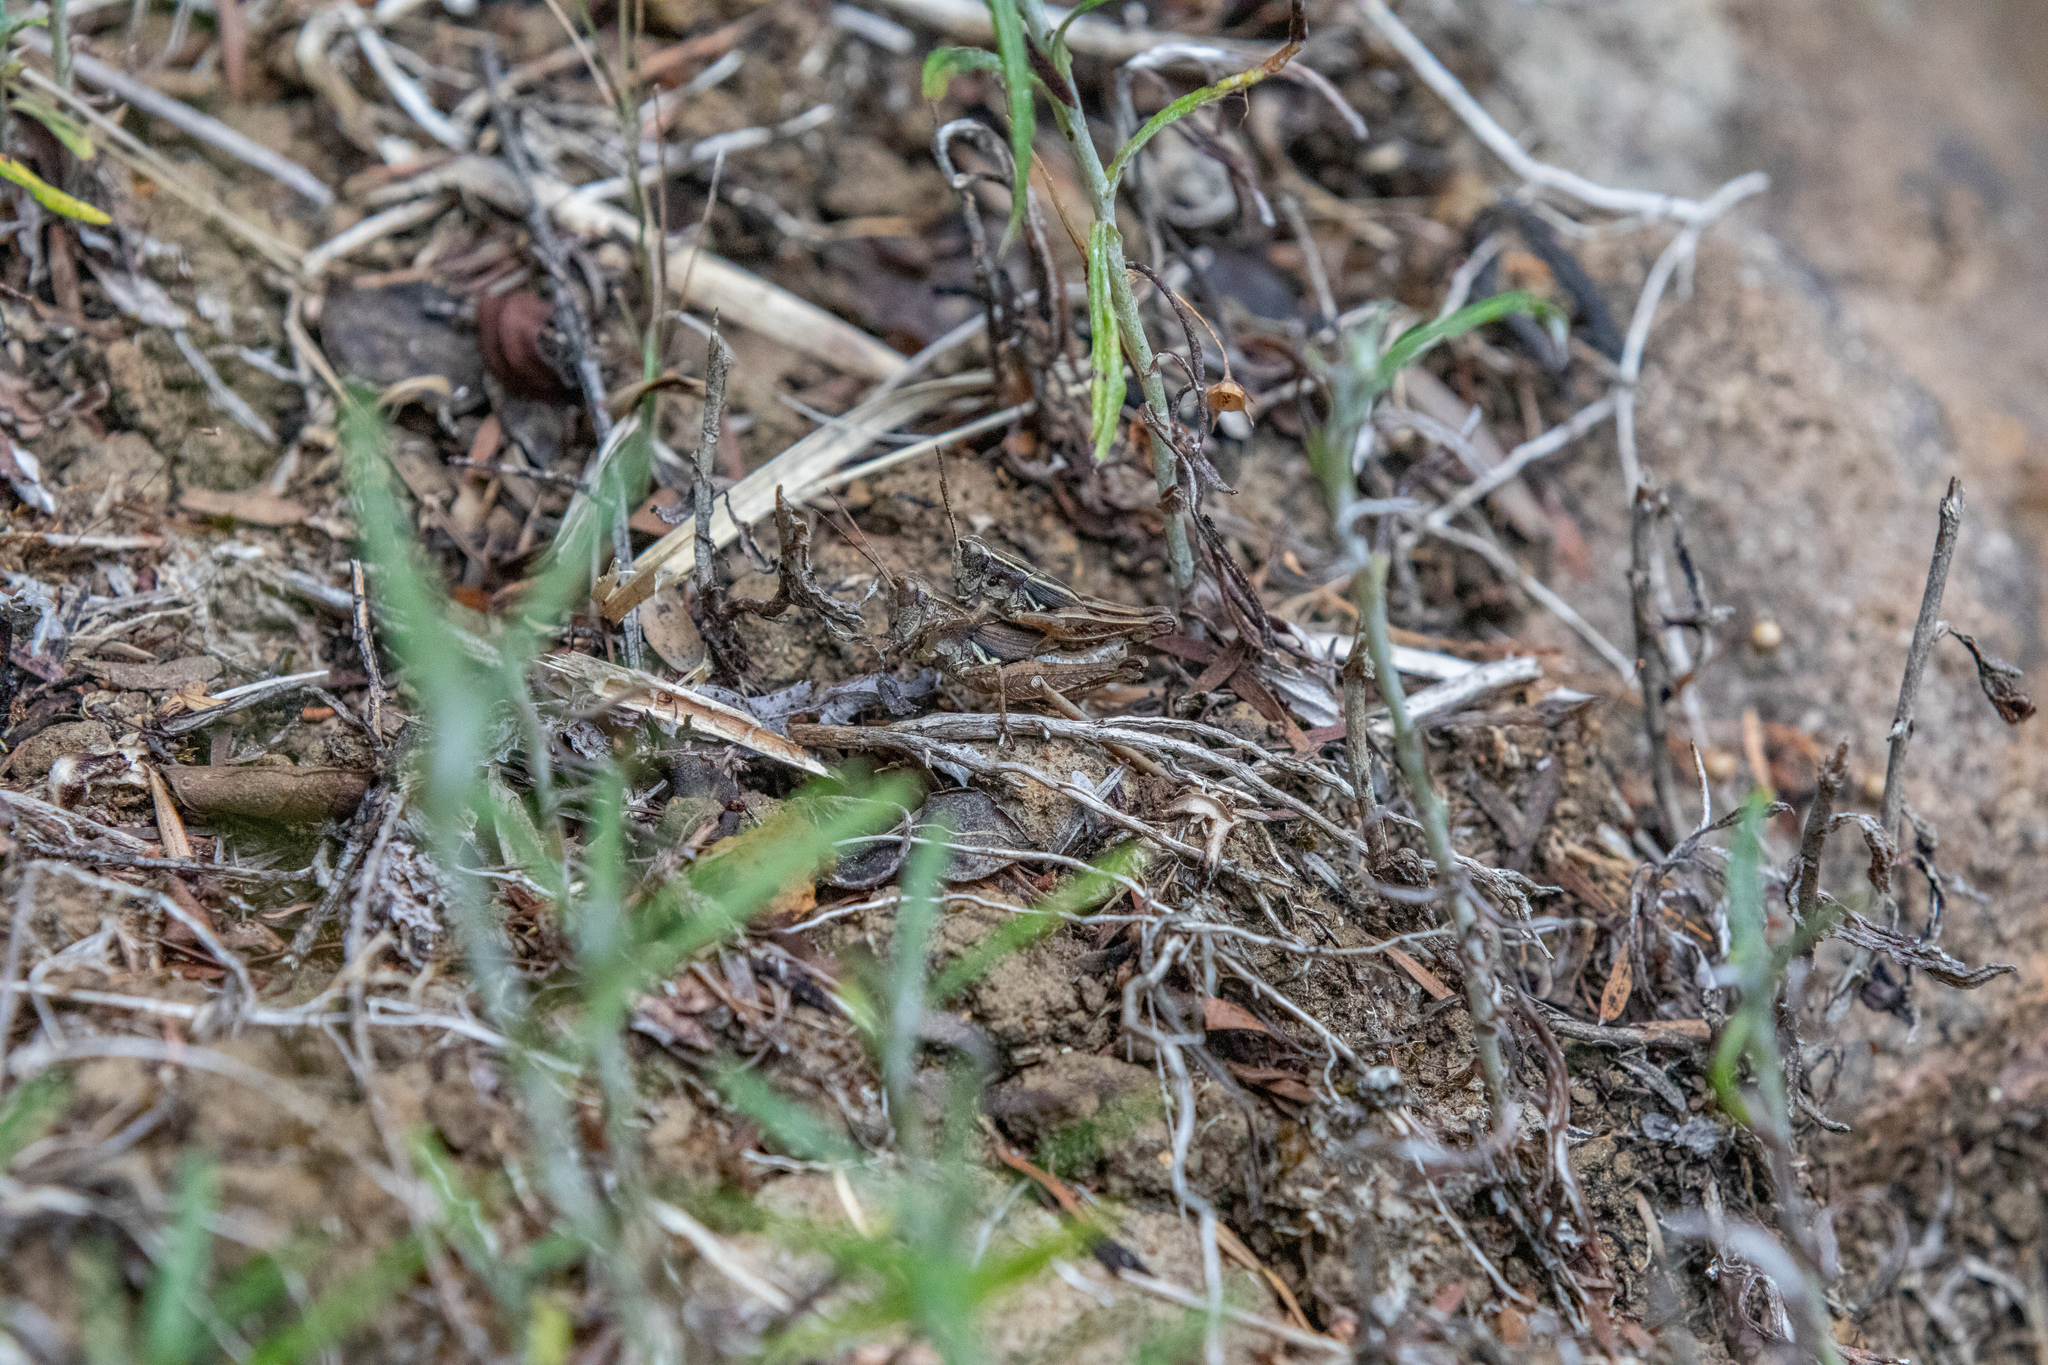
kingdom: Animalia
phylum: Arthropoda
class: Insecta
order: Orthoptera
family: Acrididae
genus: Phaulacridium
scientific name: Phaulacridium marginale
